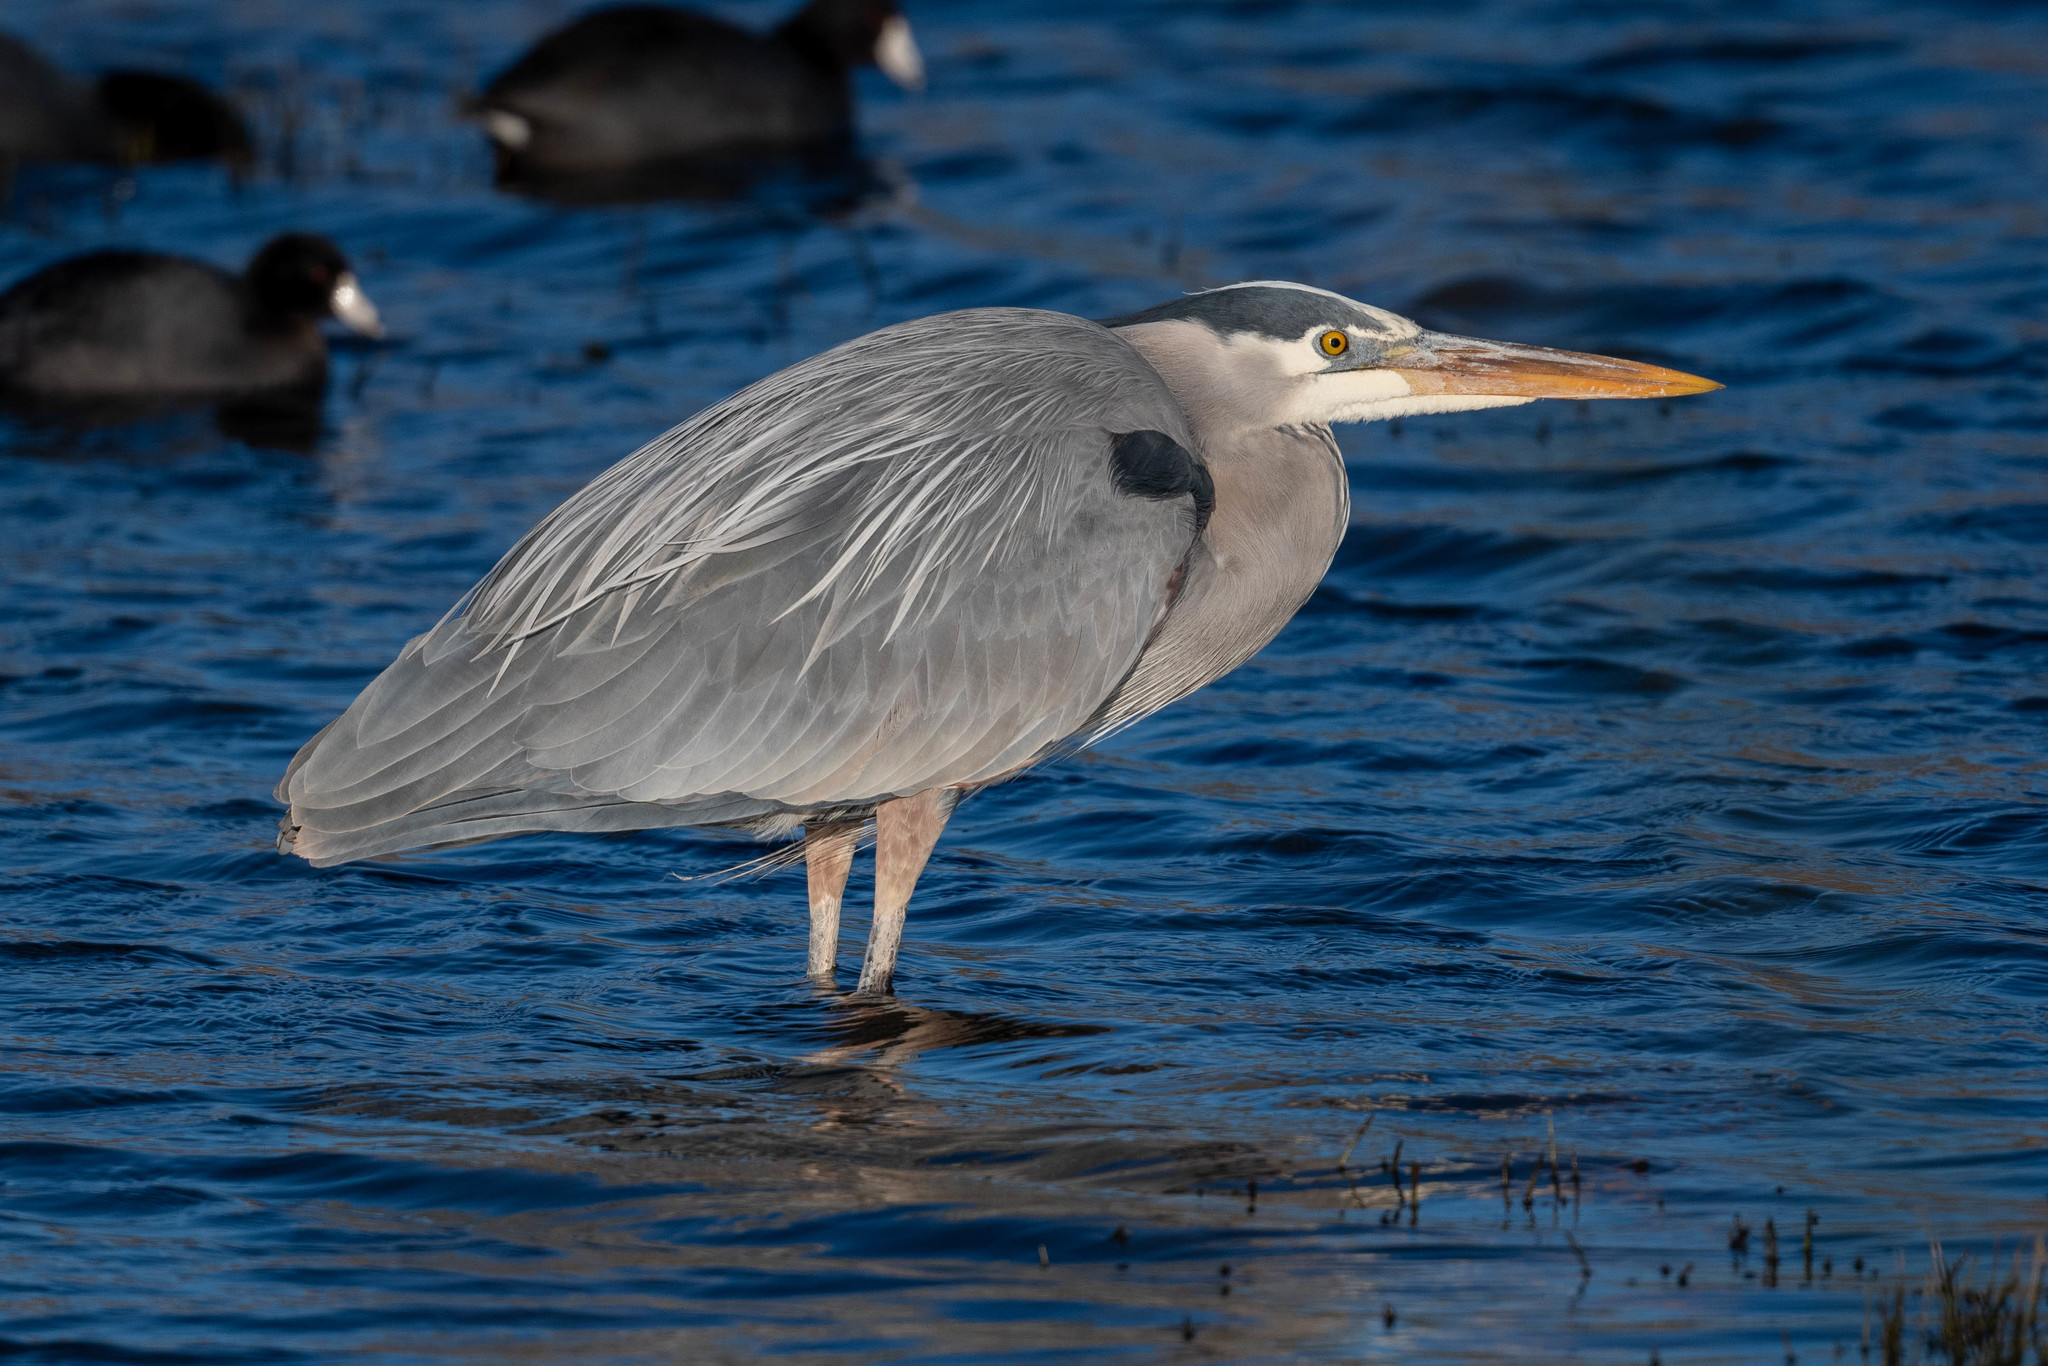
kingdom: Animalia
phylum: Chordata
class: Aves
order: Pelecaniformes
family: Ardeidae
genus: Ardea
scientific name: Ardea herodias
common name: Great blue heron
